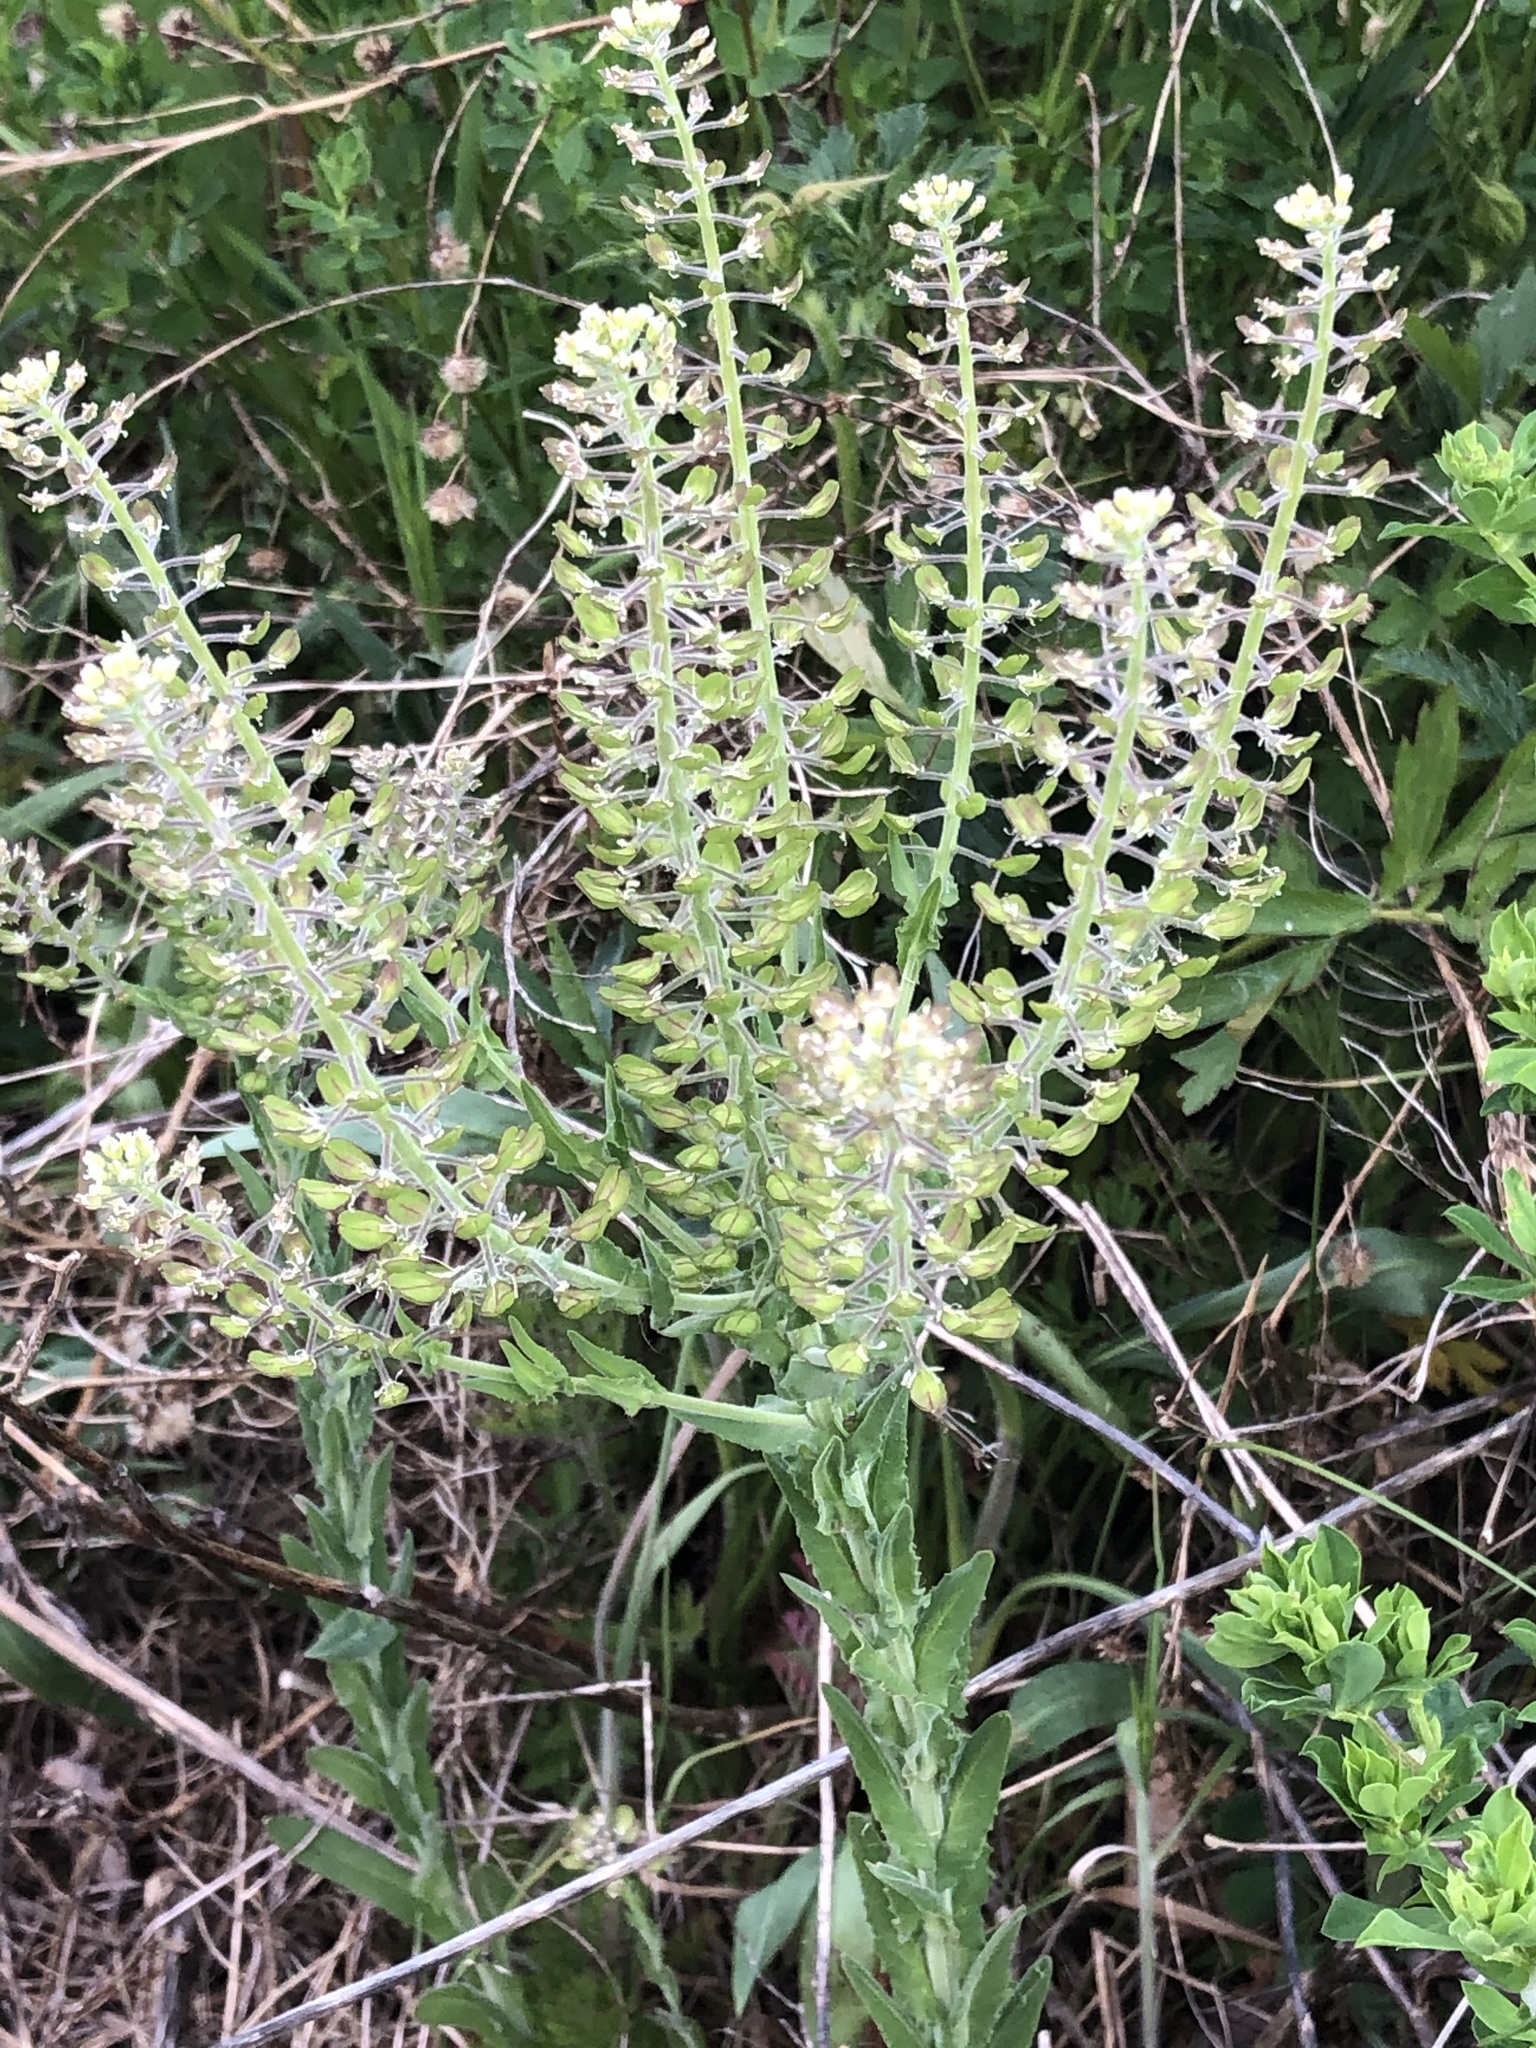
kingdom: Plantae
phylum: Tracheophyta
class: Magnoliopsida
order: Brassicales
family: Brassicaceae
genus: Lepidium
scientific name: Lepidium campestre
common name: Field pepperwort
